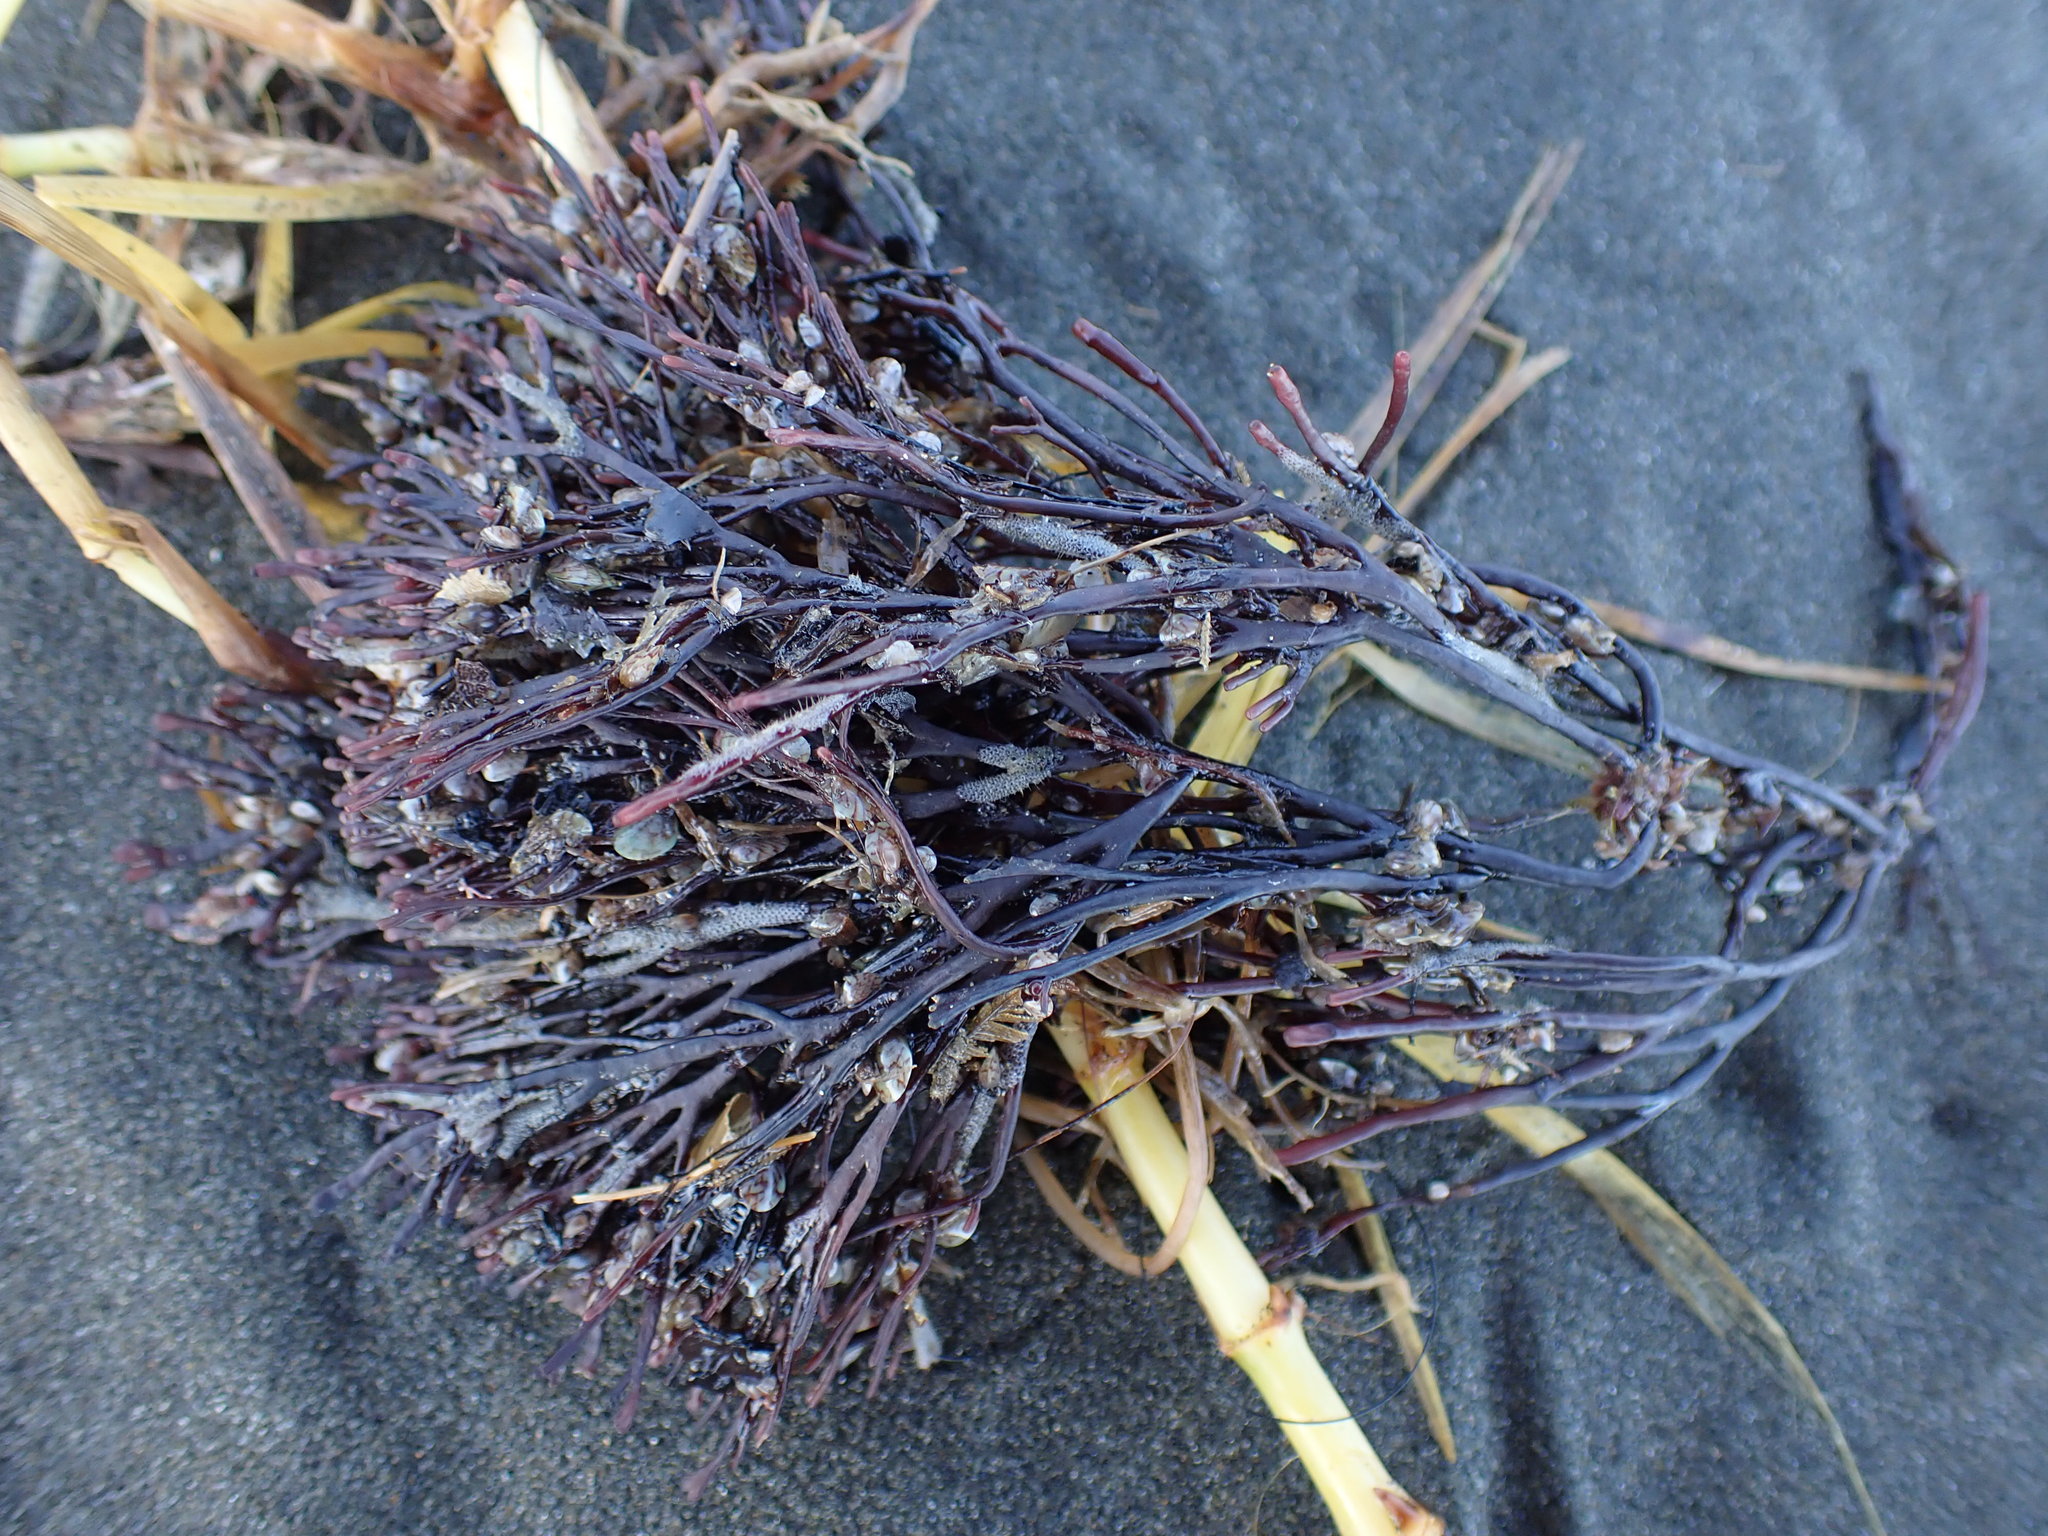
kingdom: Plantae
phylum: Rhodophyta
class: Florideophyceae
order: Gracilariales
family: Gracilariaceae
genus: Melanthalia
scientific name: Melanthalia abscissa
